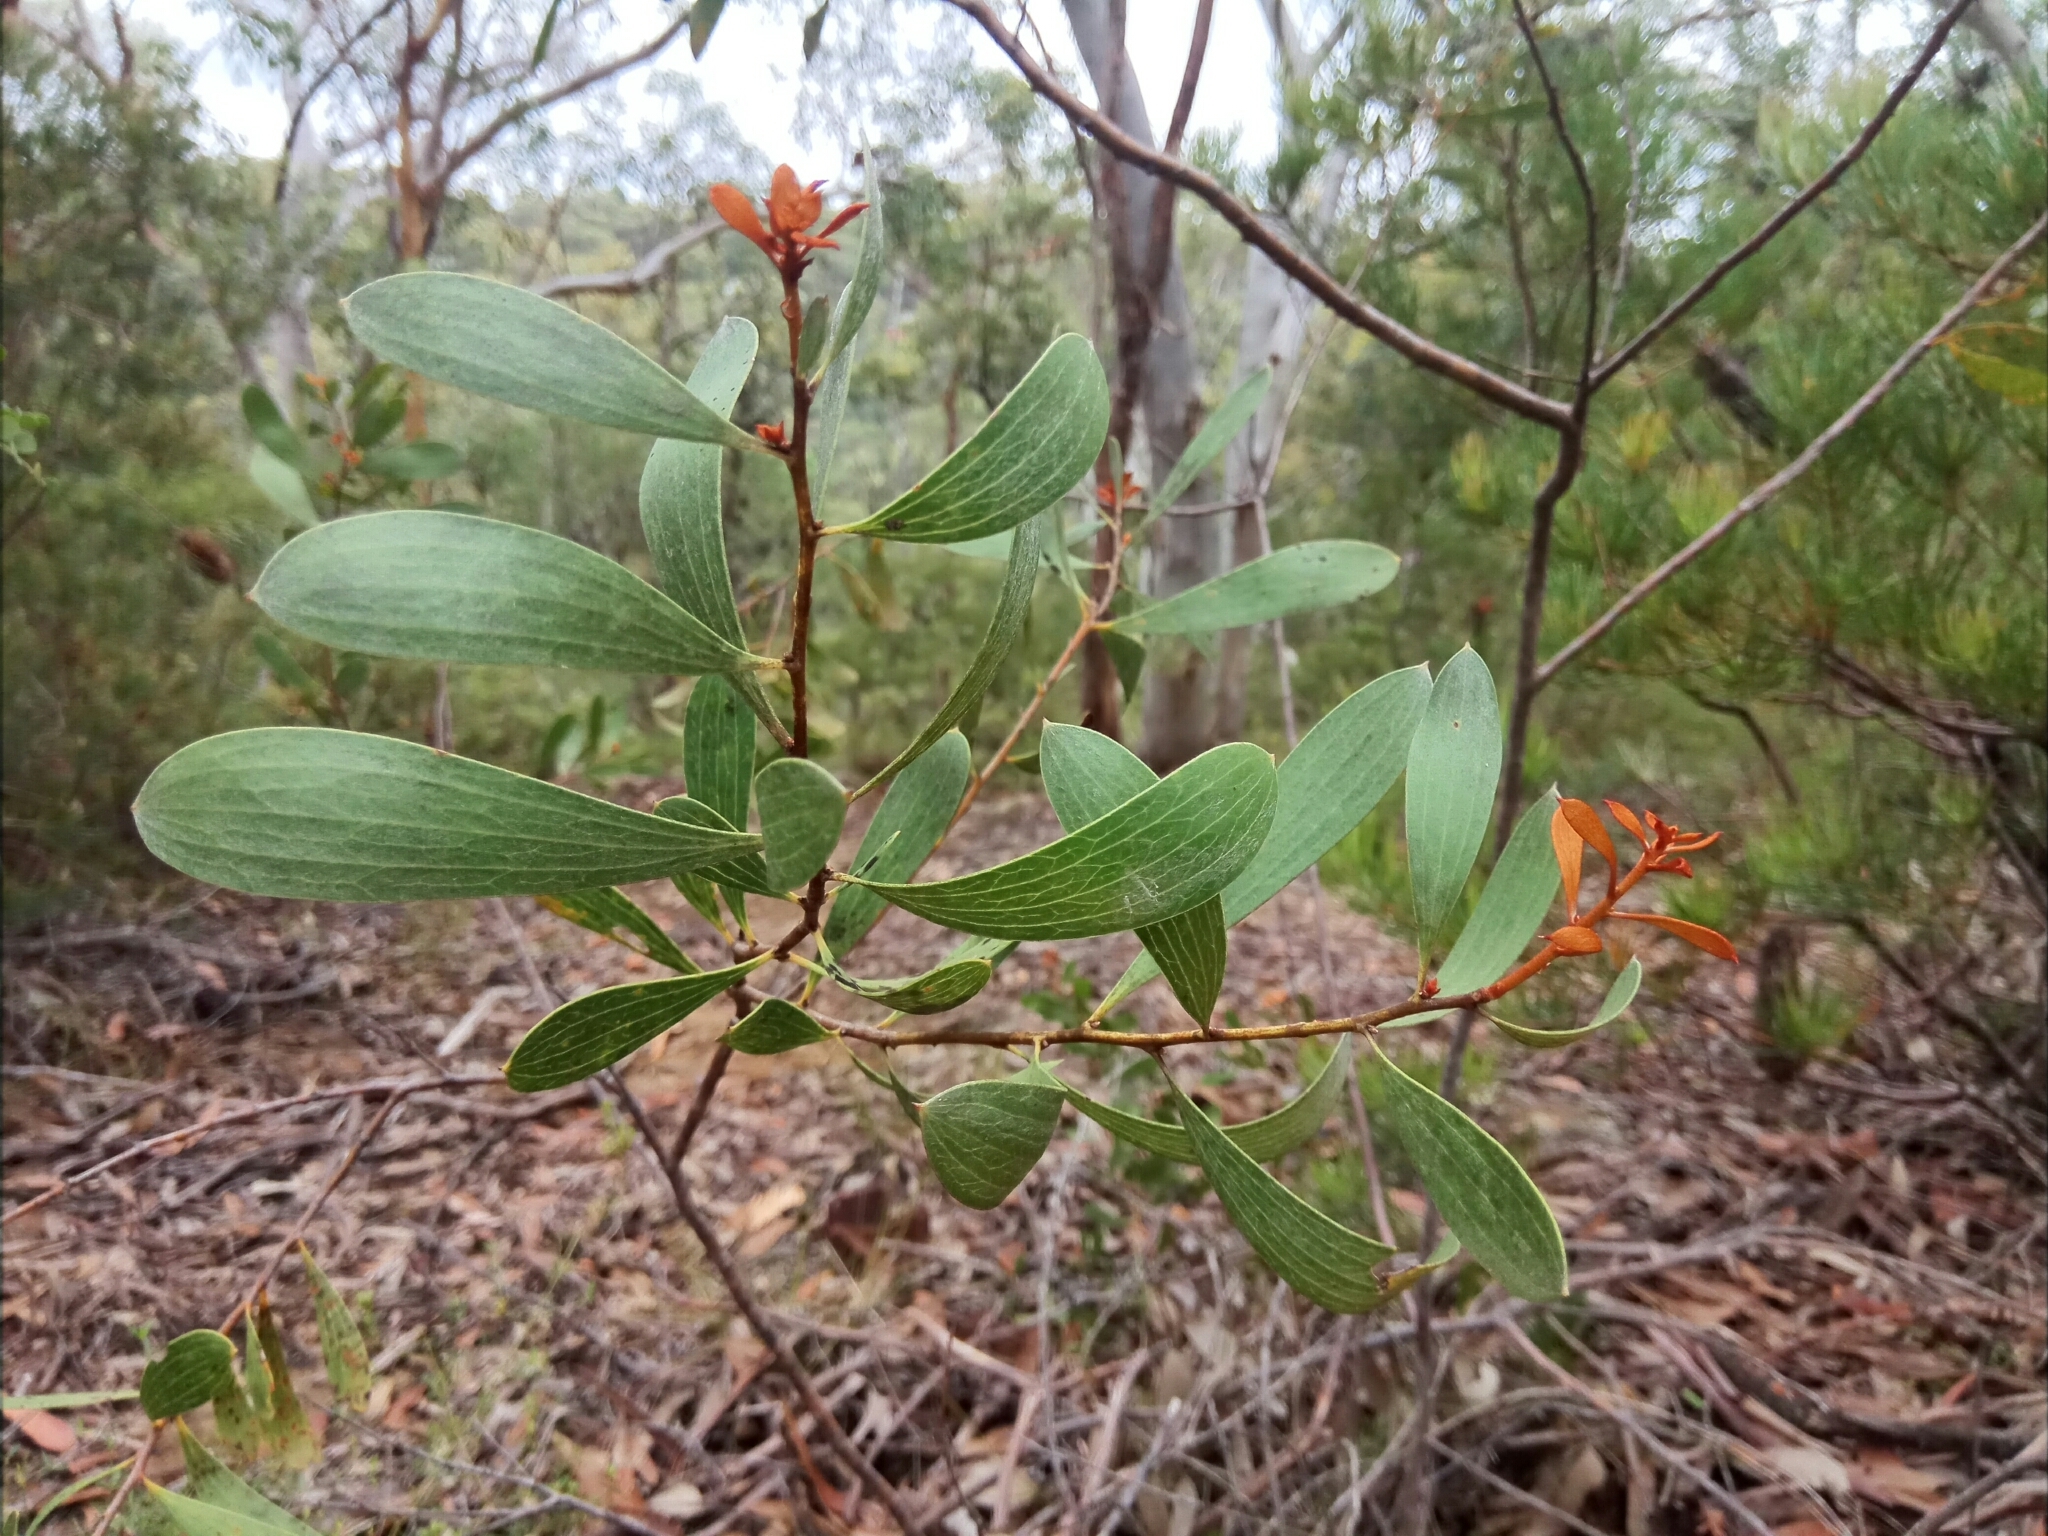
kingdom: Plantae
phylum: Tracheophyta
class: Magnoliopsida
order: Proteales
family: Proteaceae
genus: Hakea
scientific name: Hakea dactyloides
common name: Finger hakea
